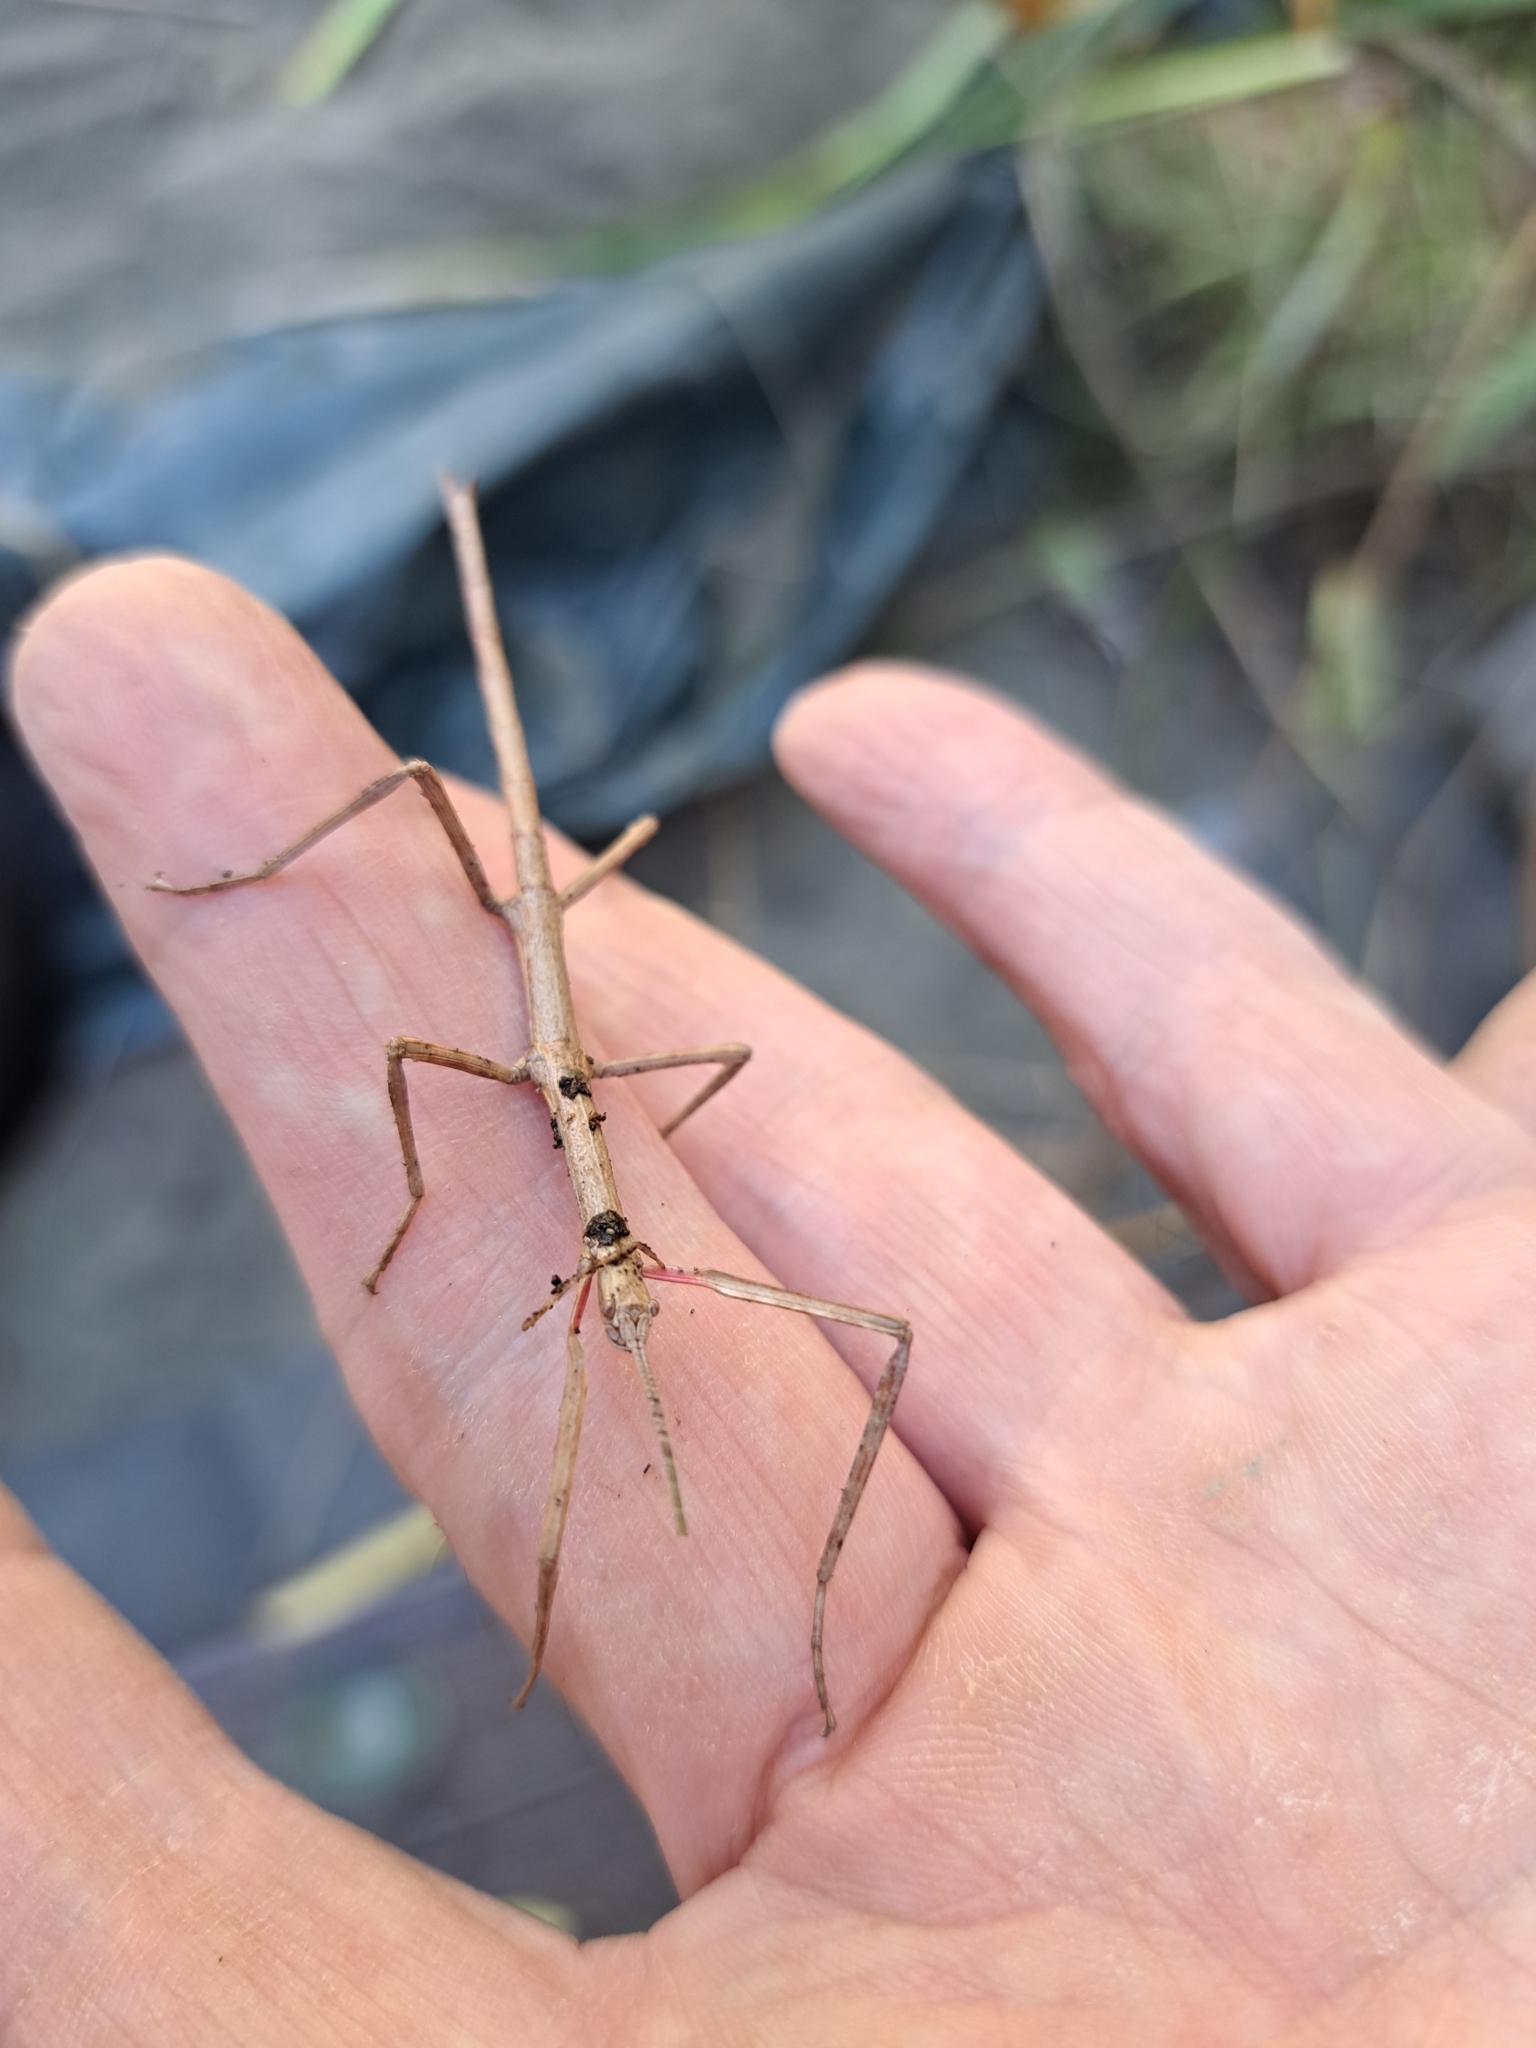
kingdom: Animalia
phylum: Arthropoda
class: Insecta
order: Phasmida
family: Phasmatidae
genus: Clitarchus
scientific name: Clitarchus hookeri
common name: Smooth stick insect
